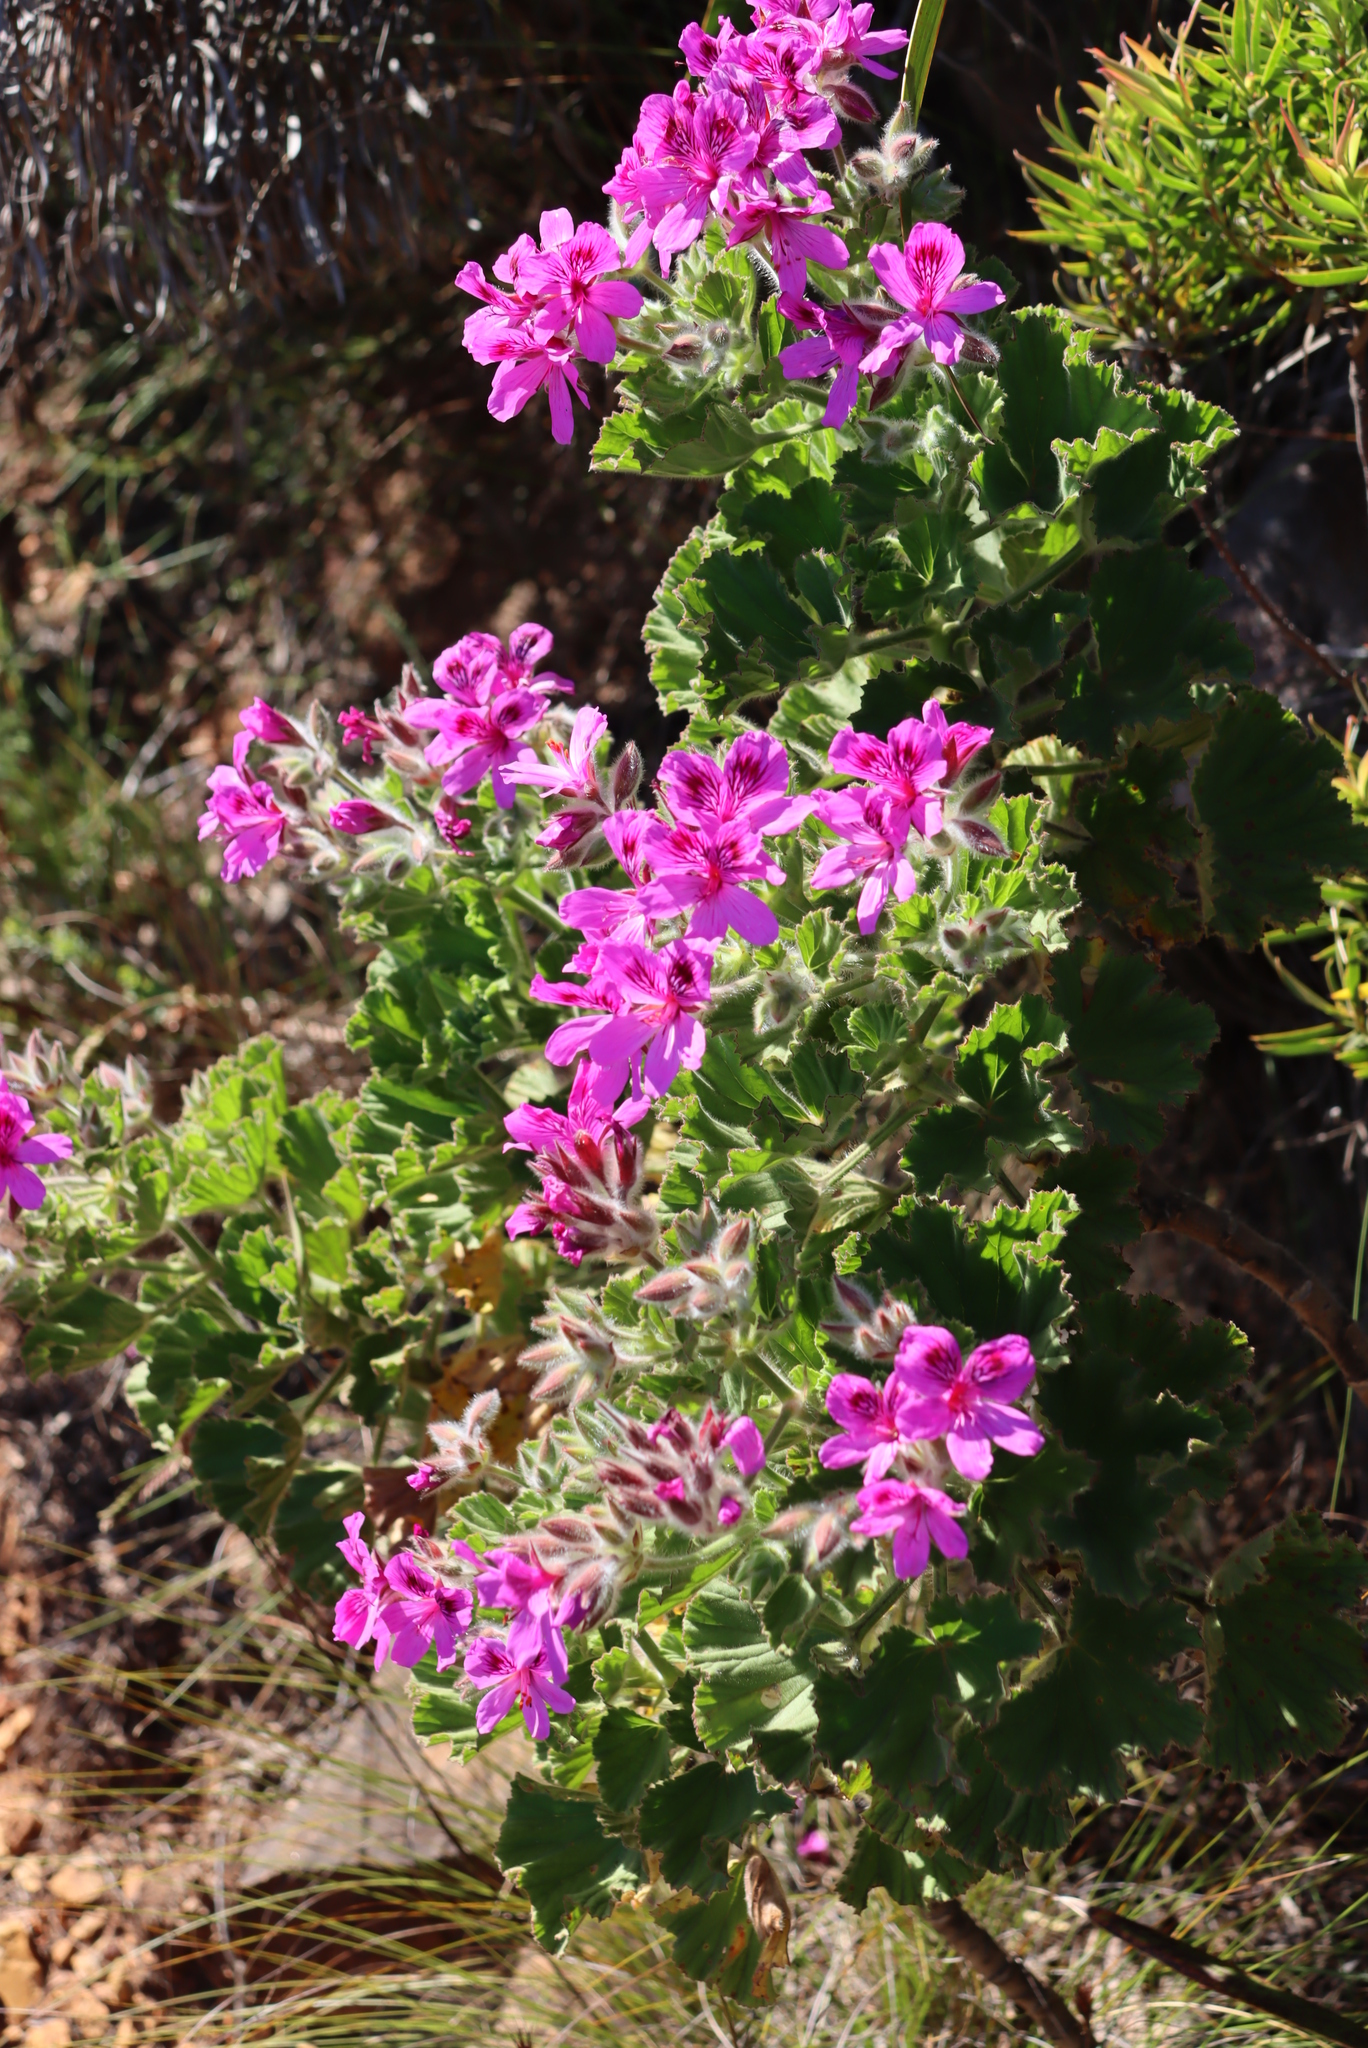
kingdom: Plantae
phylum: Tracheophyta
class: Magnoliopsida
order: Geraniales
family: Geraniaceae
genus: Pelargonium
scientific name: Pelargonium cucullatum
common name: Tree pelargonium
